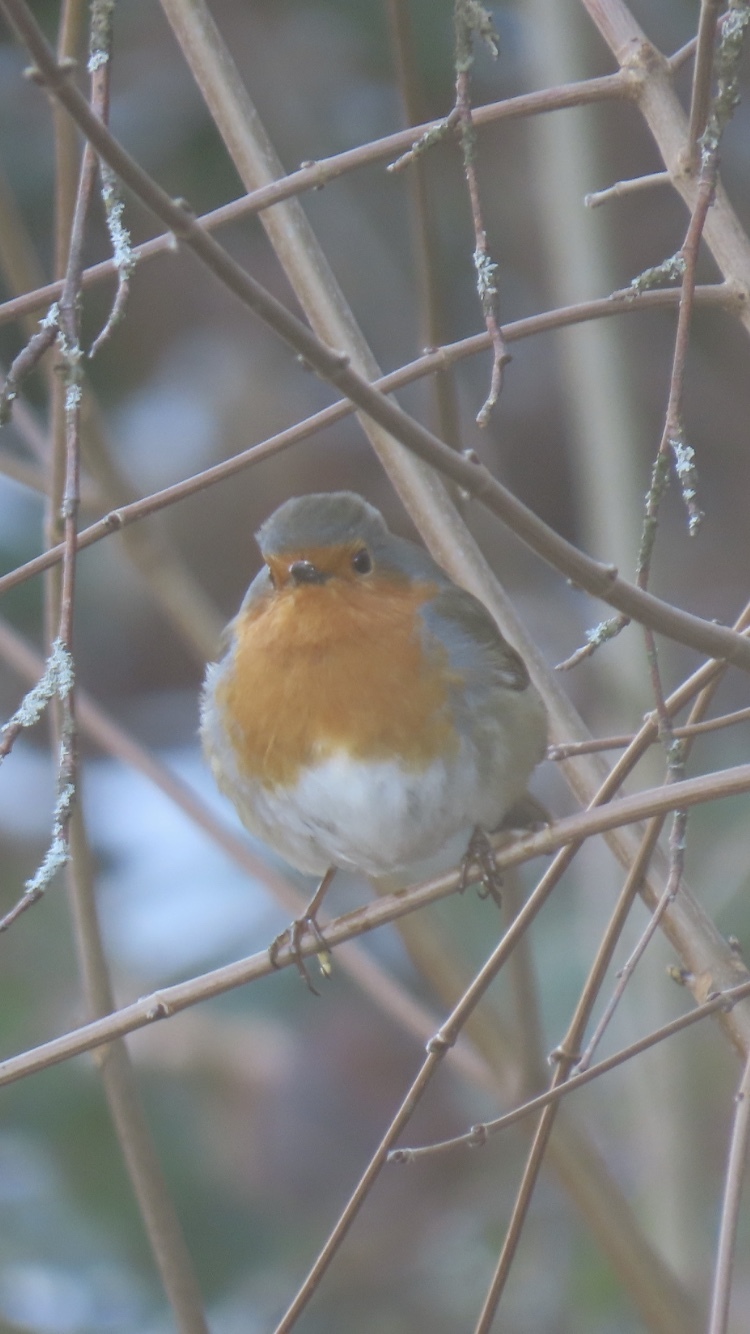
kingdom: Animalia
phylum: Chordata
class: Aves
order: Passeriformes
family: Muscicapidae
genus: Erithacus
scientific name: Erithacus rubecula
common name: European robin
